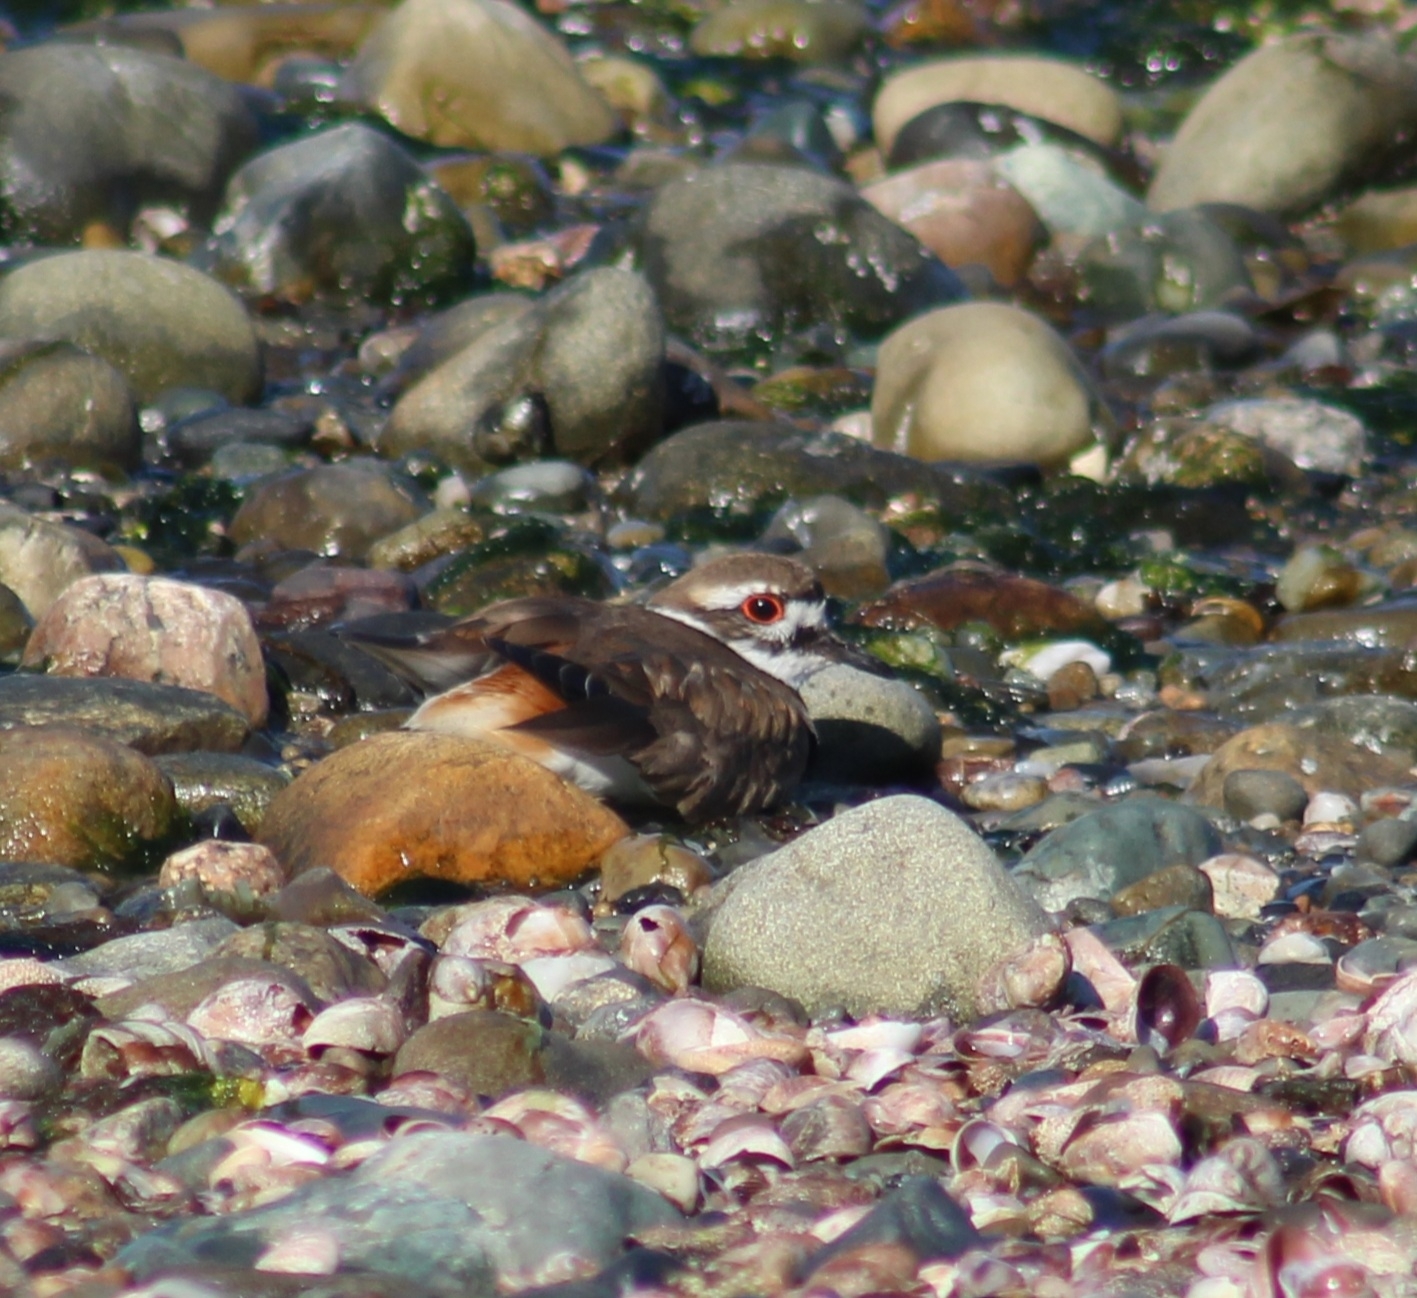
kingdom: Animalia
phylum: Chordata
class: Aves
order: Charadriiformes
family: Charadriidae
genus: Charadrius
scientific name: Charadrius vociferus
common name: Killdeer
